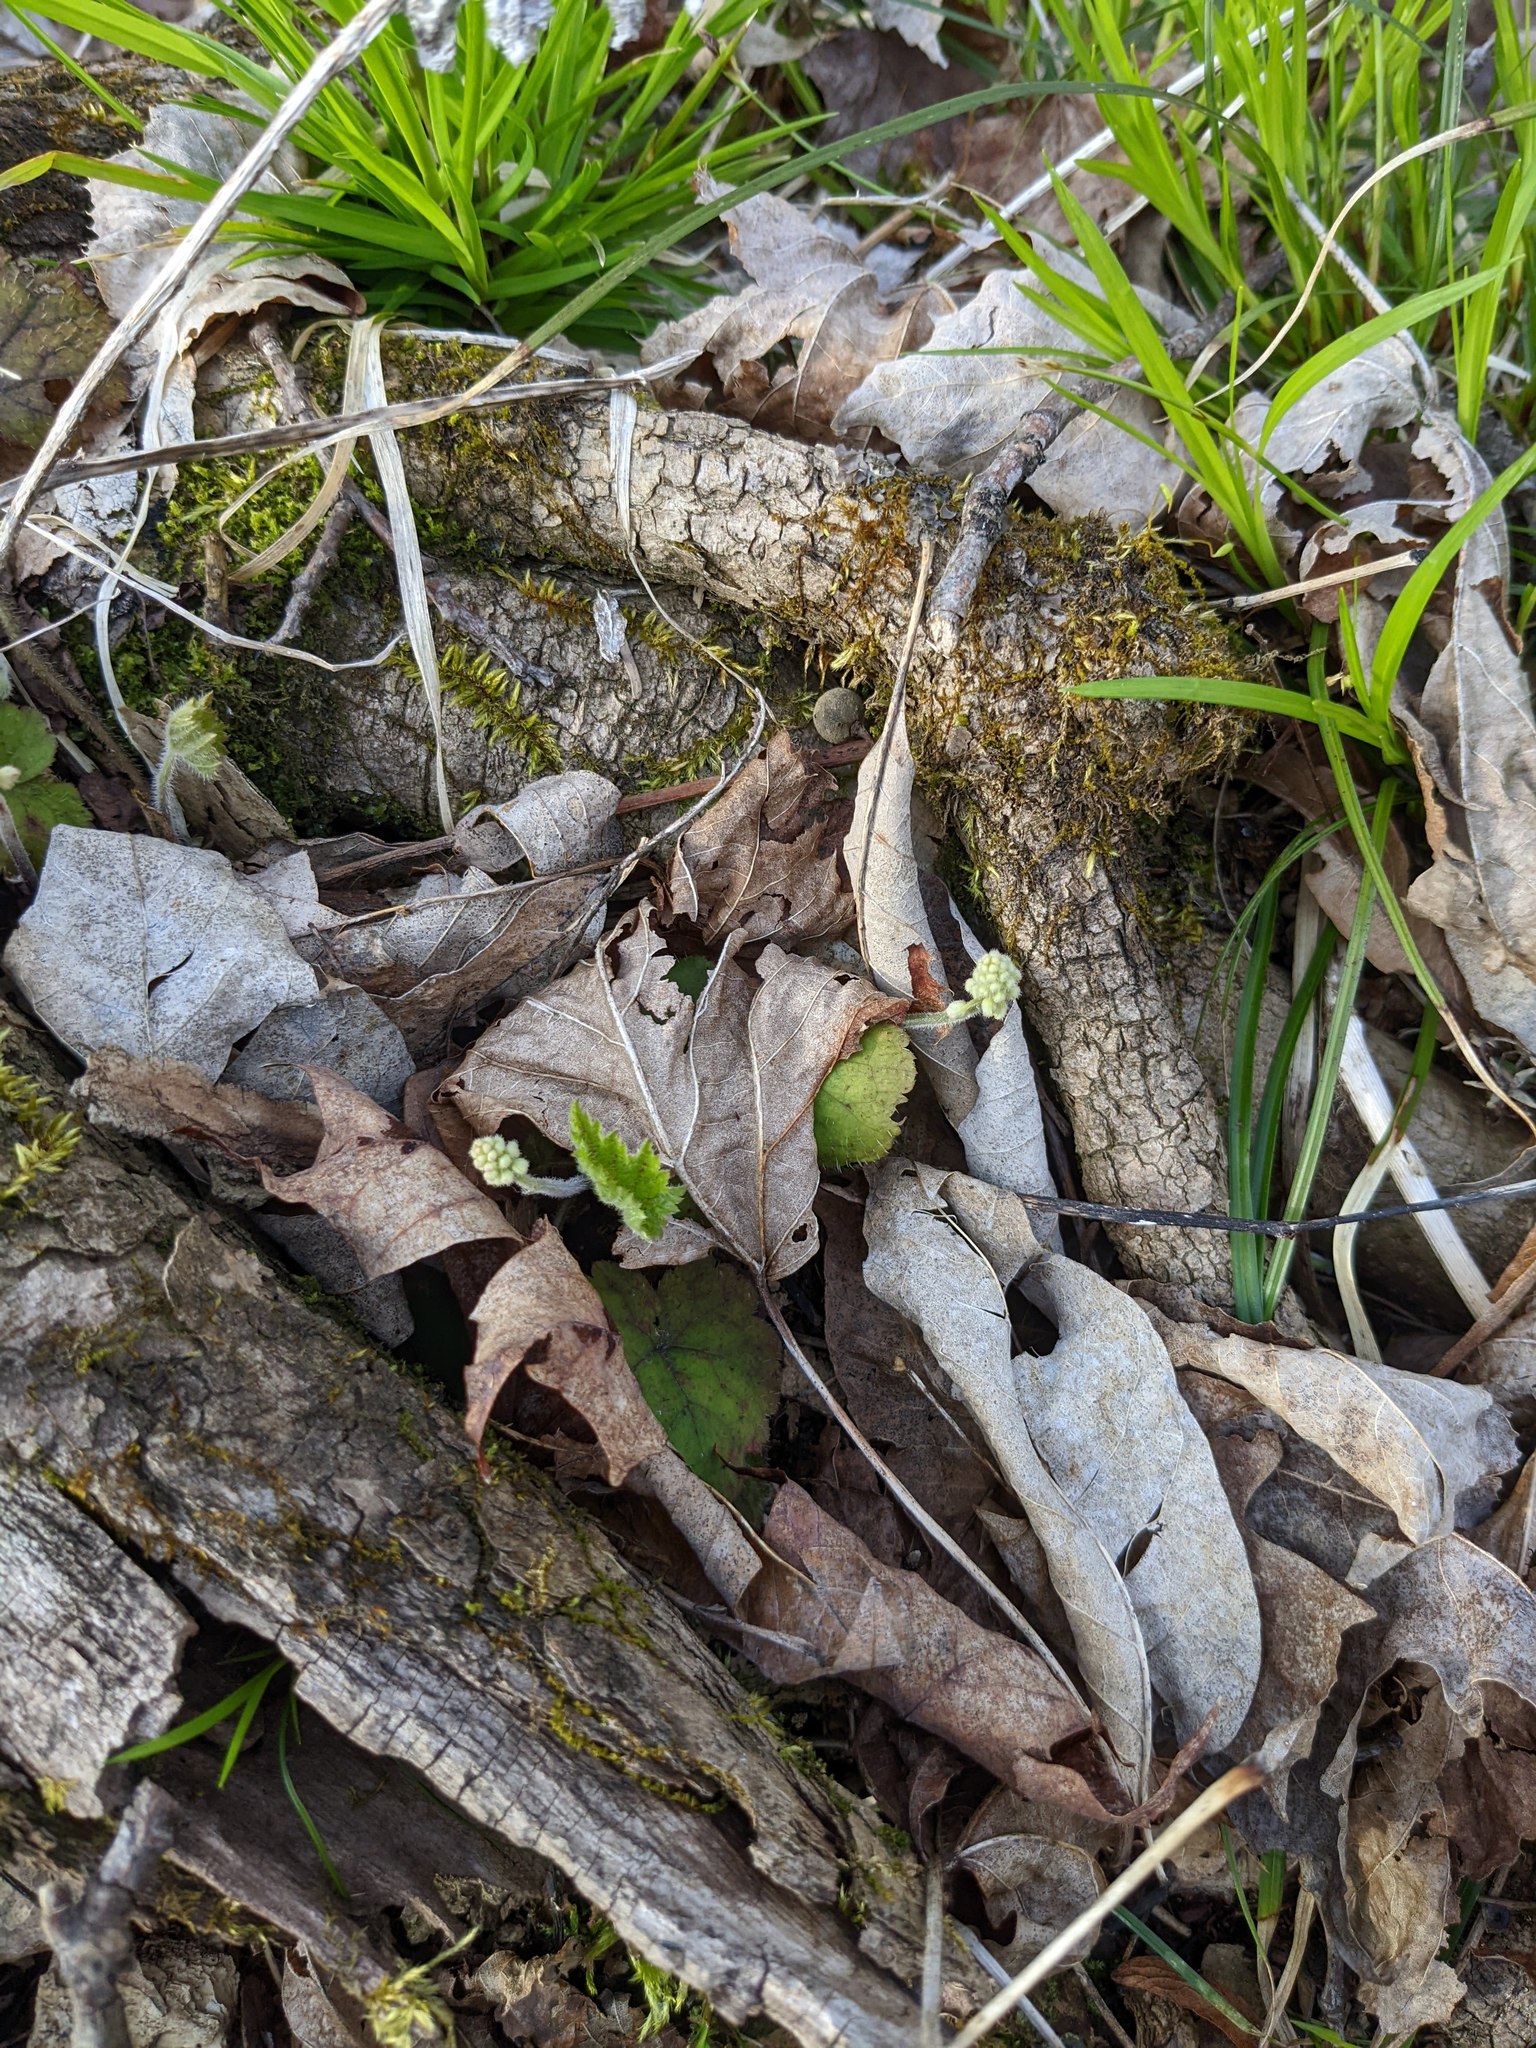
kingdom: Plantae
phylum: Tracheophyta
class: Magnoliopsida
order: Saxifragales
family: Saxifragaceae
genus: Tiarella
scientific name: Tiarella stolonifera
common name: Stoloniferous foamflower
